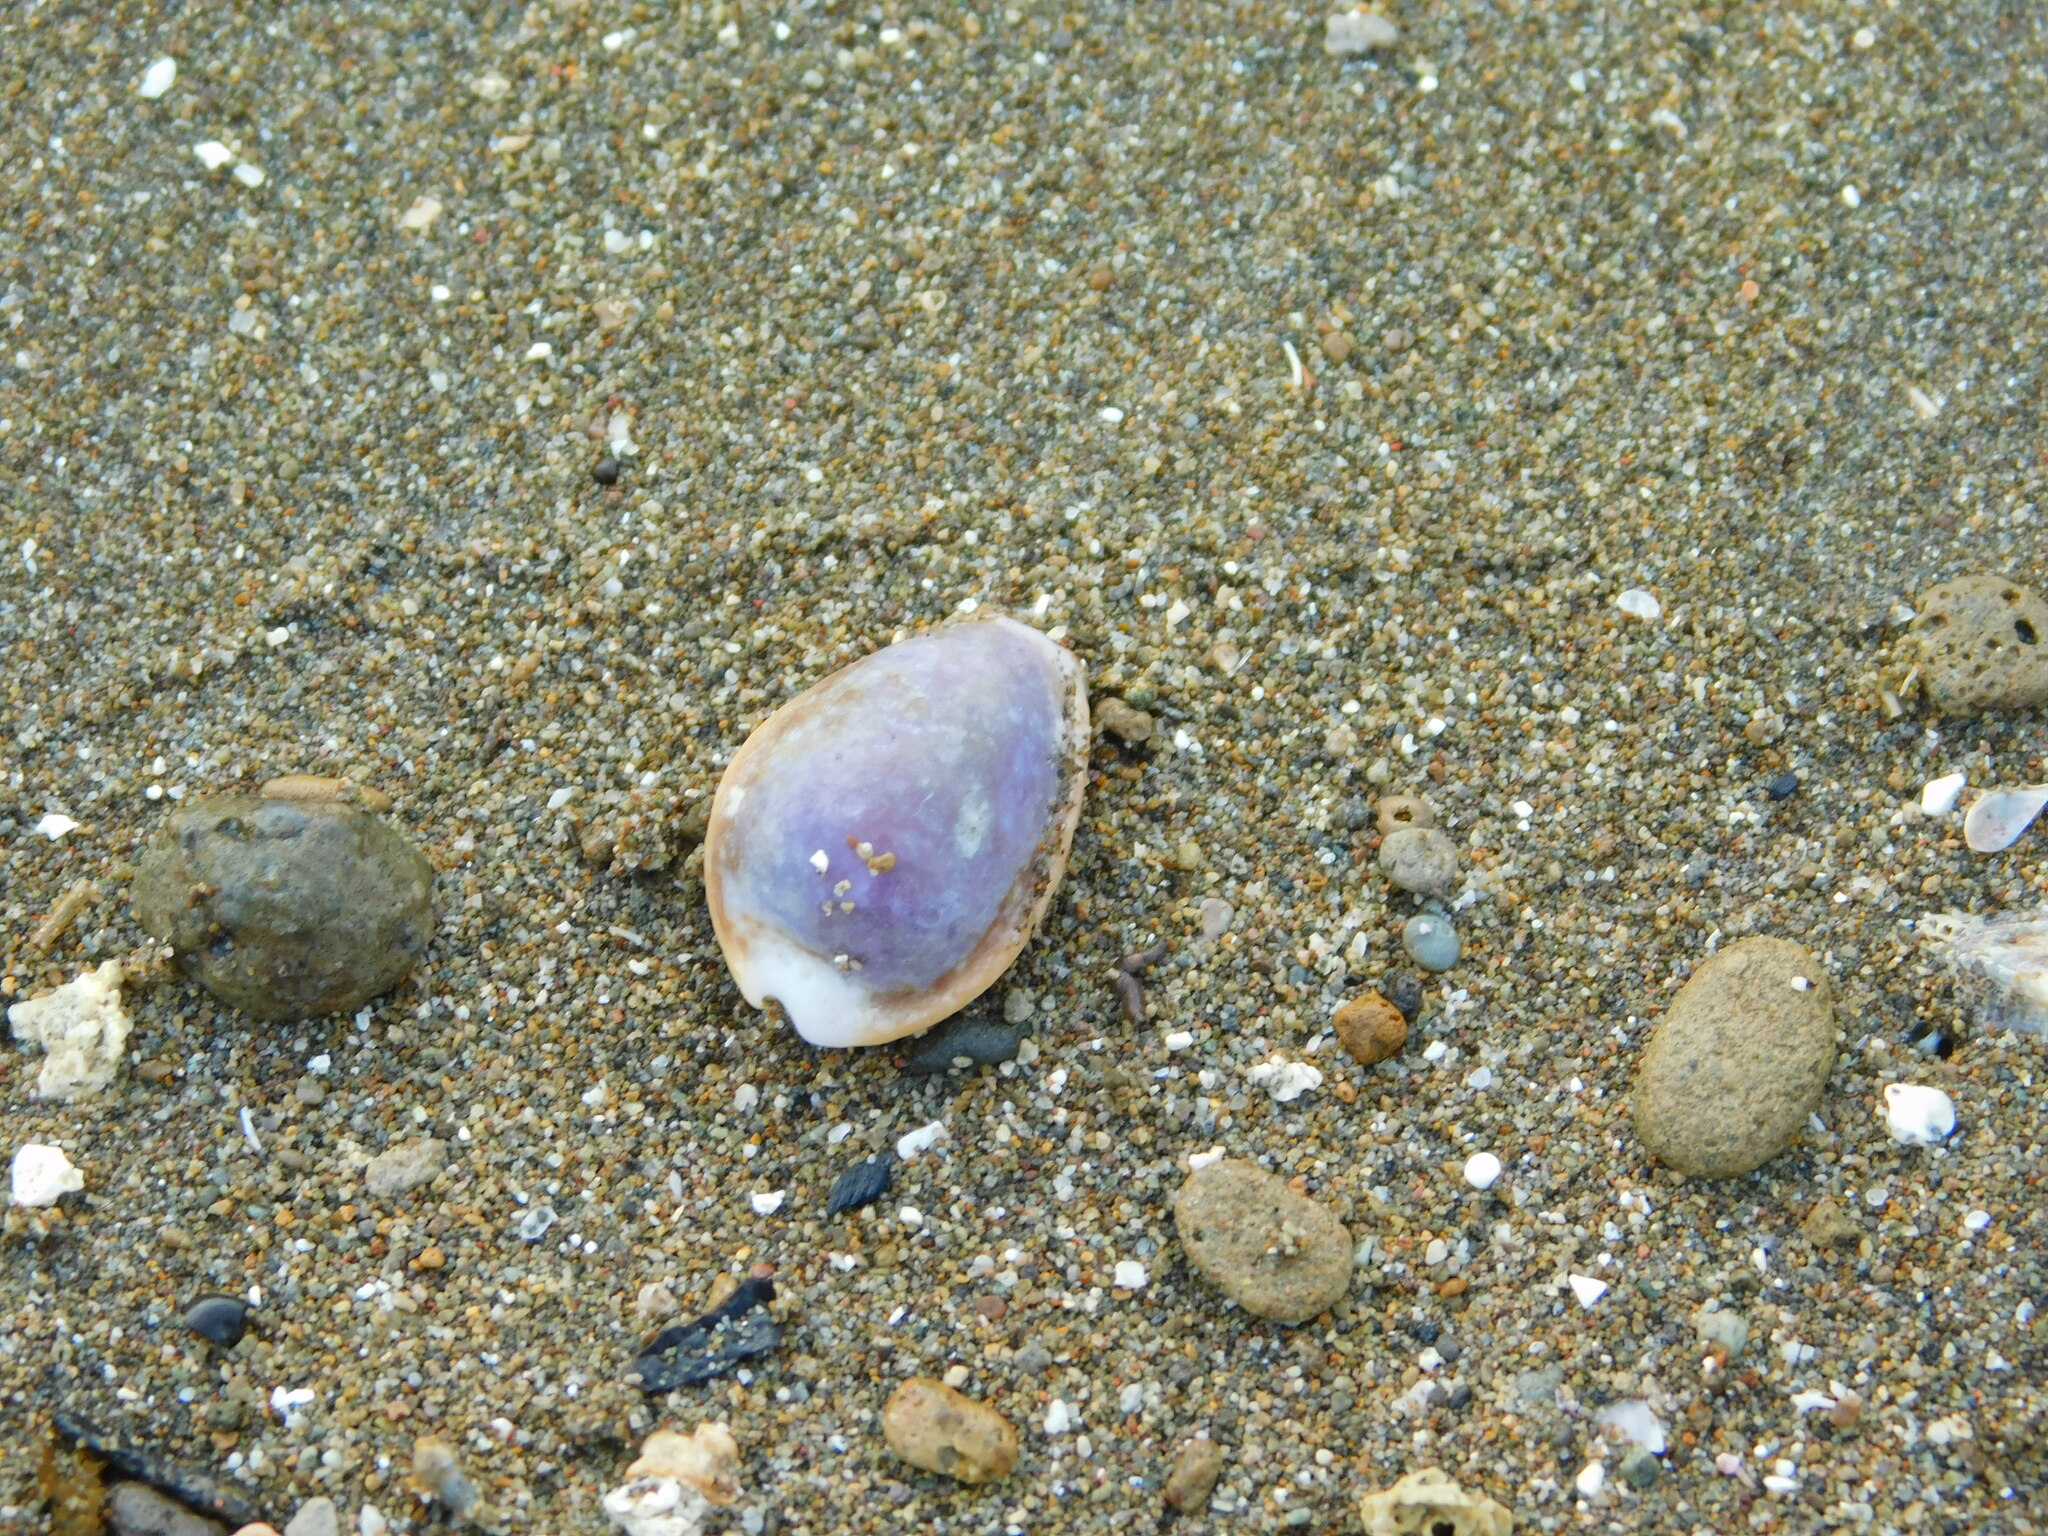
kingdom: Animalia
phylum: Mollusca
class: Gastropoda
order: Littorinimorpha
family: Cypraeidae
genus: Naria
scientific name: Naria helvola
